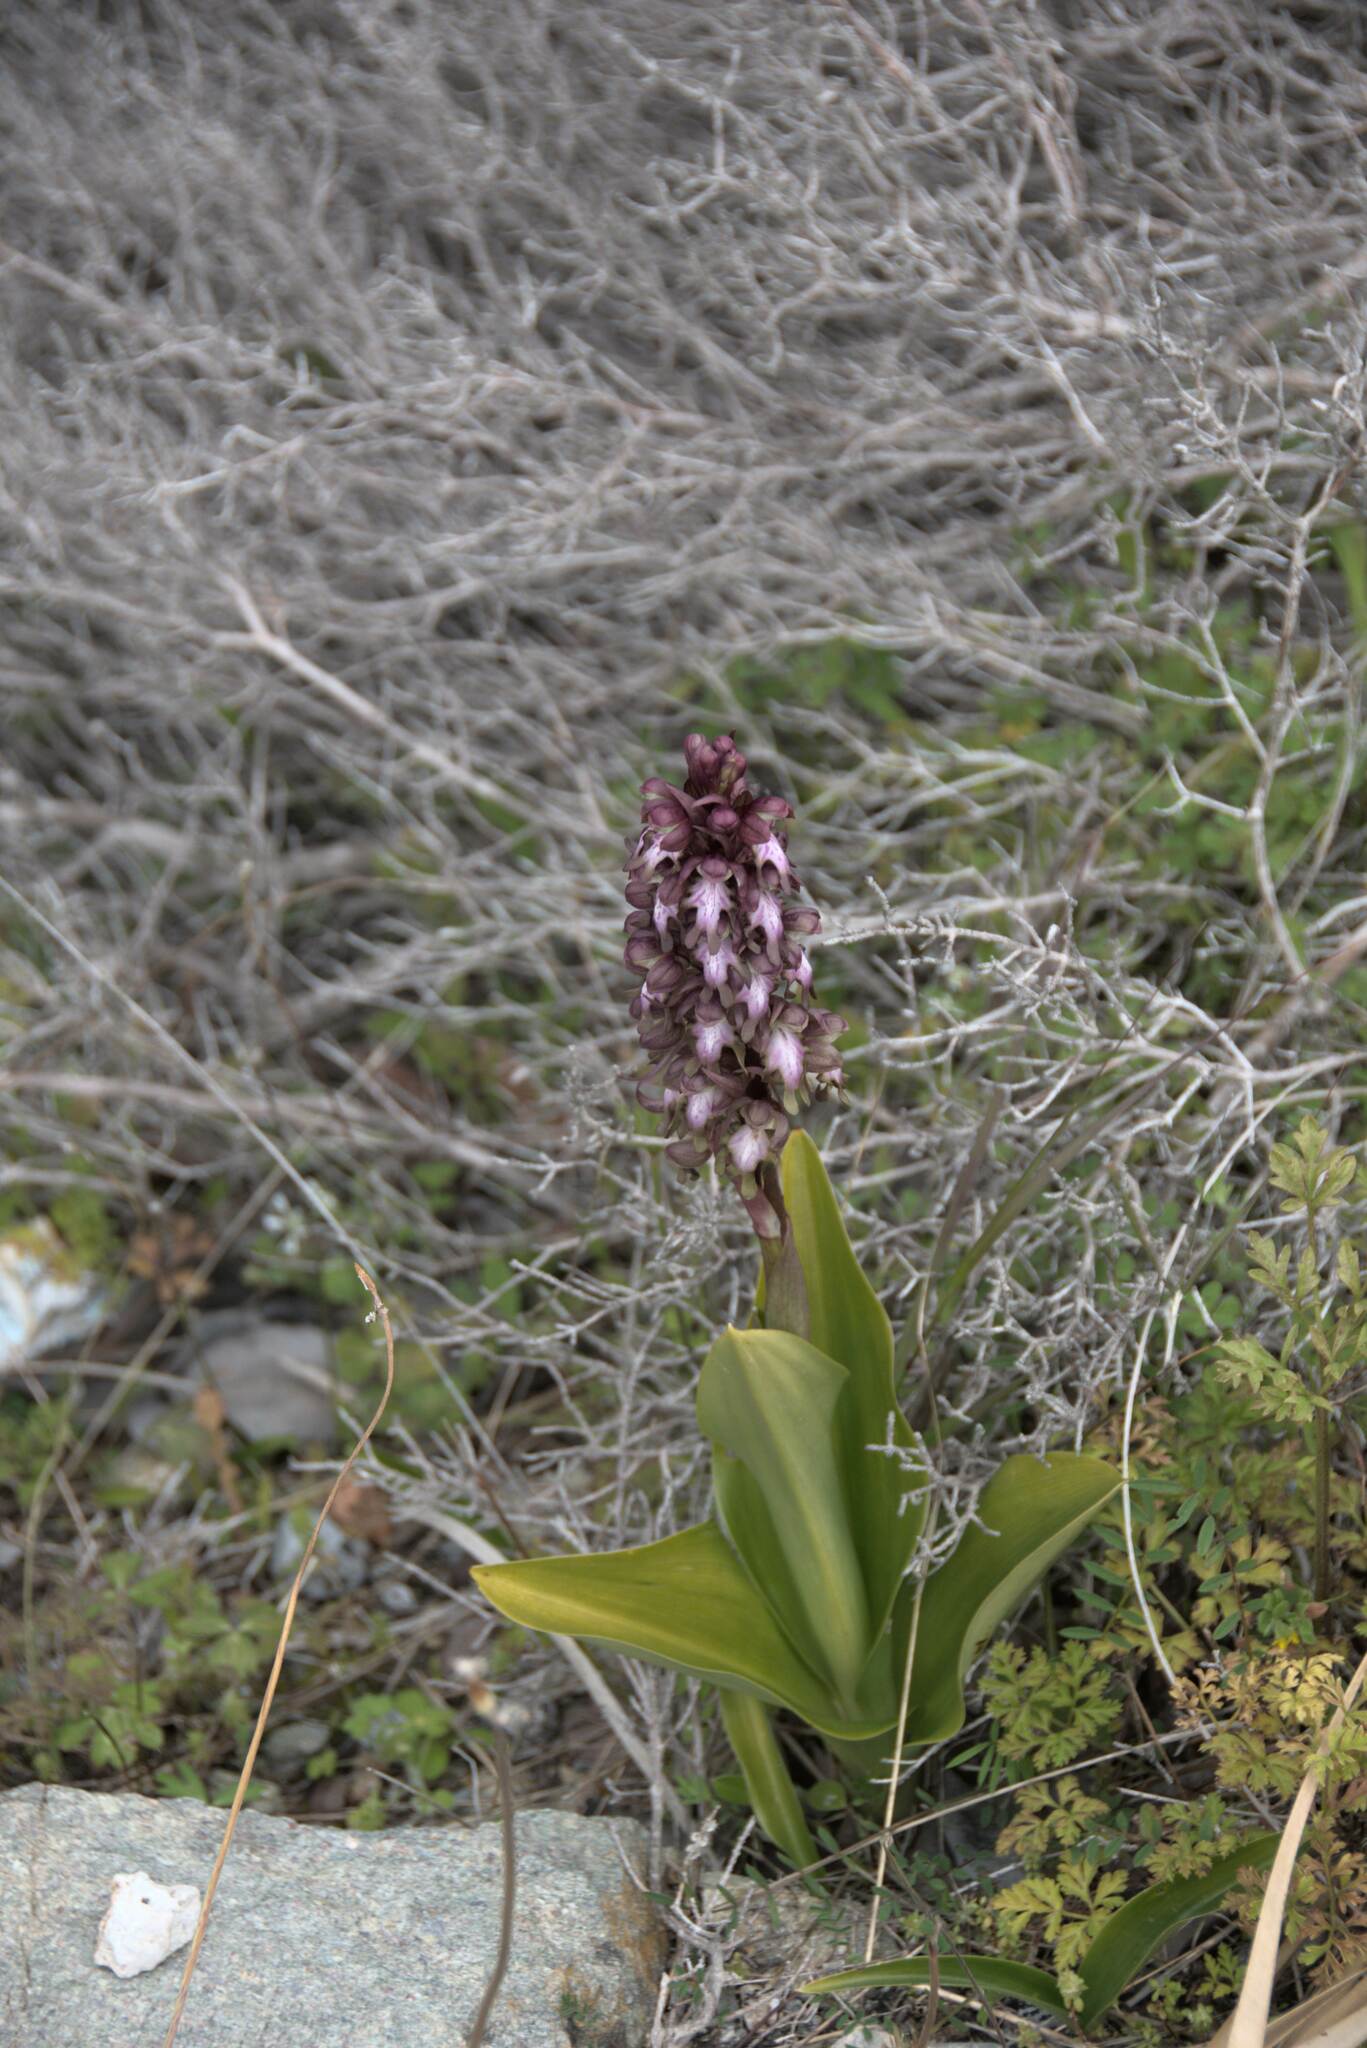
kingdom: Plantae
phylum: Tracheophyta
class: Liliopsida
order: Asparagales
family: Orchidaceae
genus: Himantoglossum
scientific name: Himantoglossum robertianum
